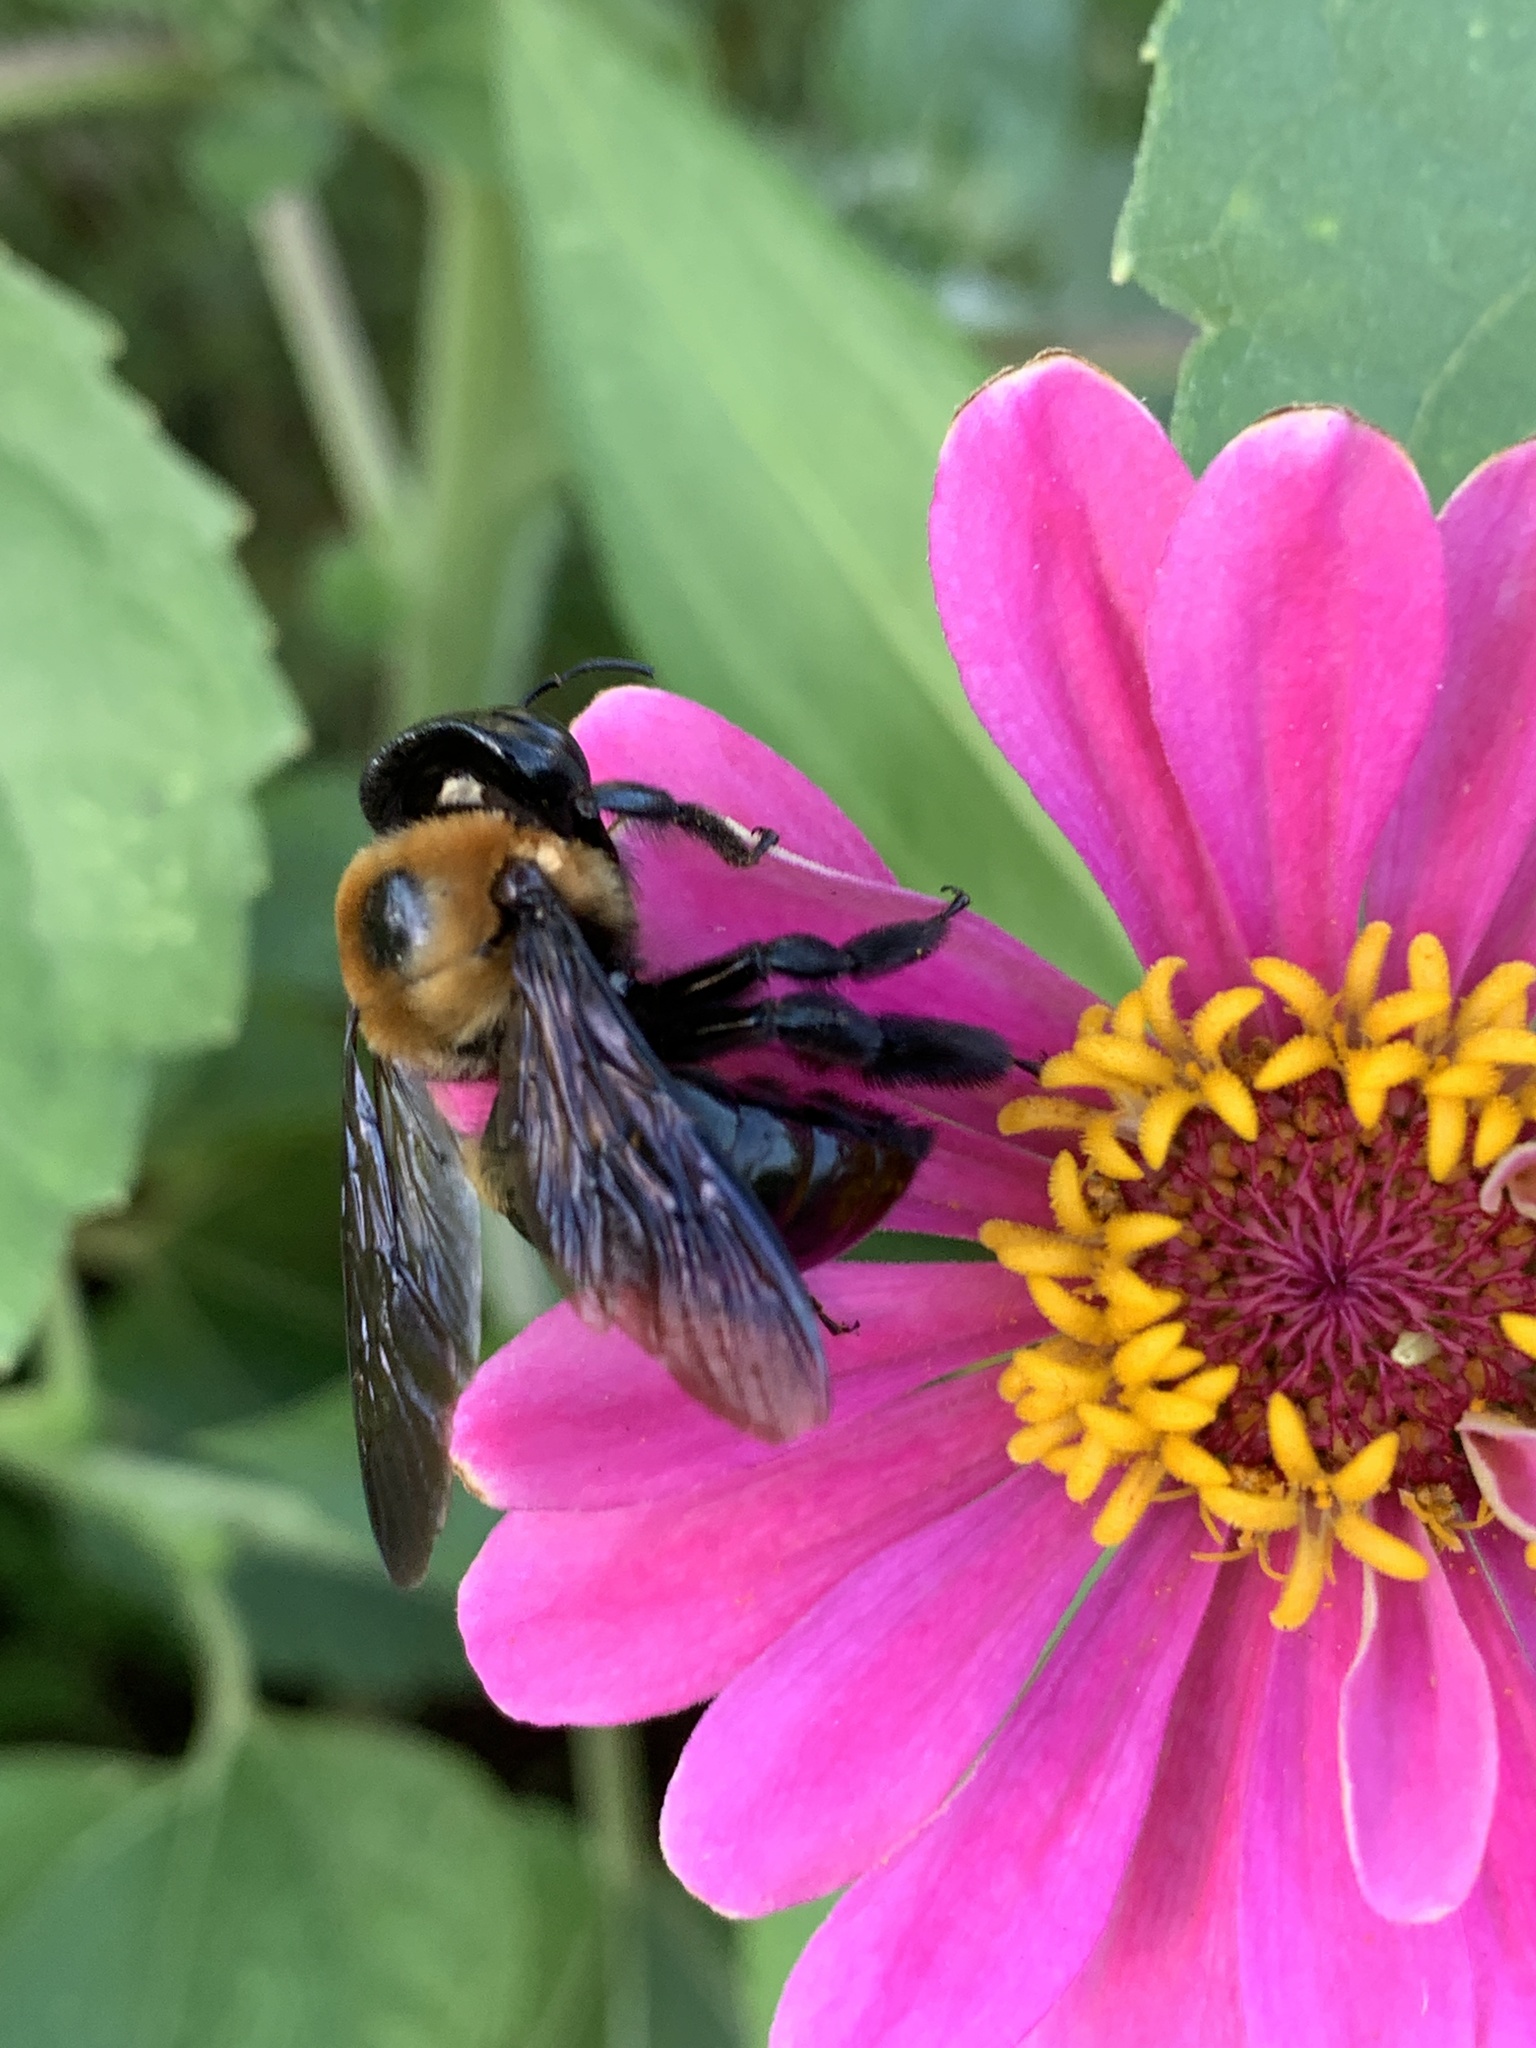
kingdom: Animalia
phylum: Arthropoda
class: Insecta
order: Hymenoptera
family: Apidae
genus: Xylocopa
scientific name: Xylocopa virginica
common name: Carpenter bee
